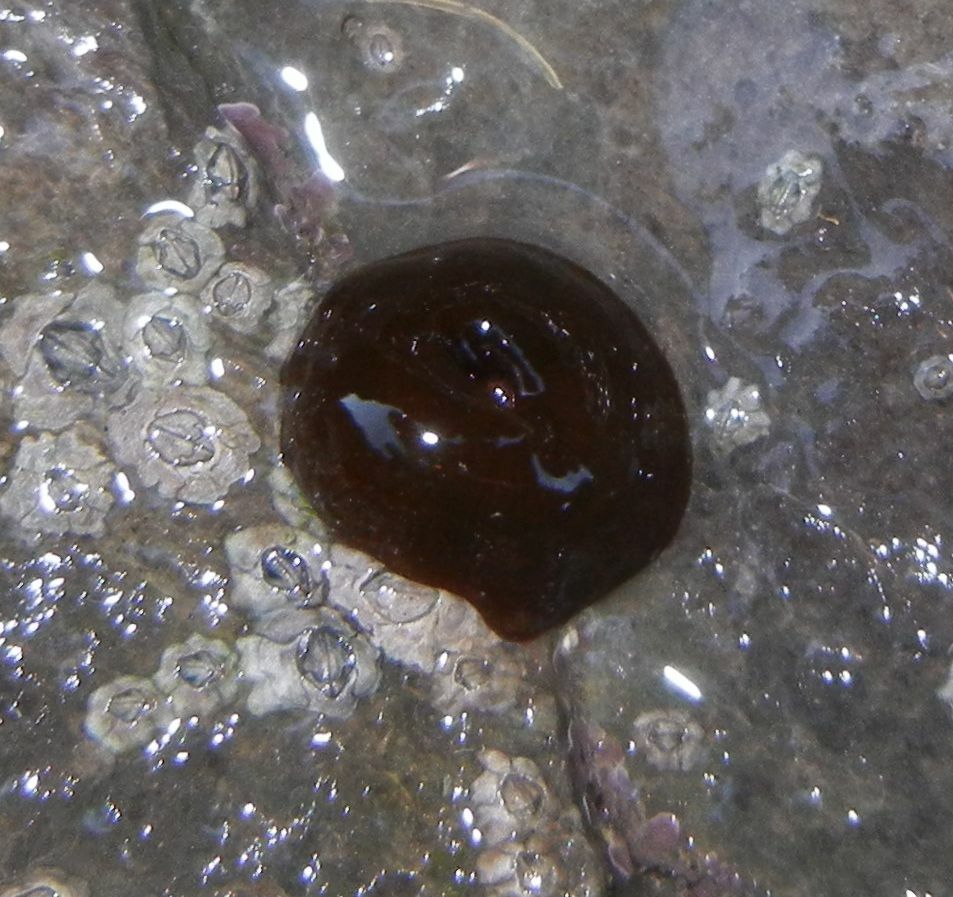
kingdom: Animalia
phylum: Cnidaria
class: Anthozoa
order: Actiniaria
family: Actiniidae
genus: Actinia
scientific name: Actinia equina
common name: Beadlet anemone
